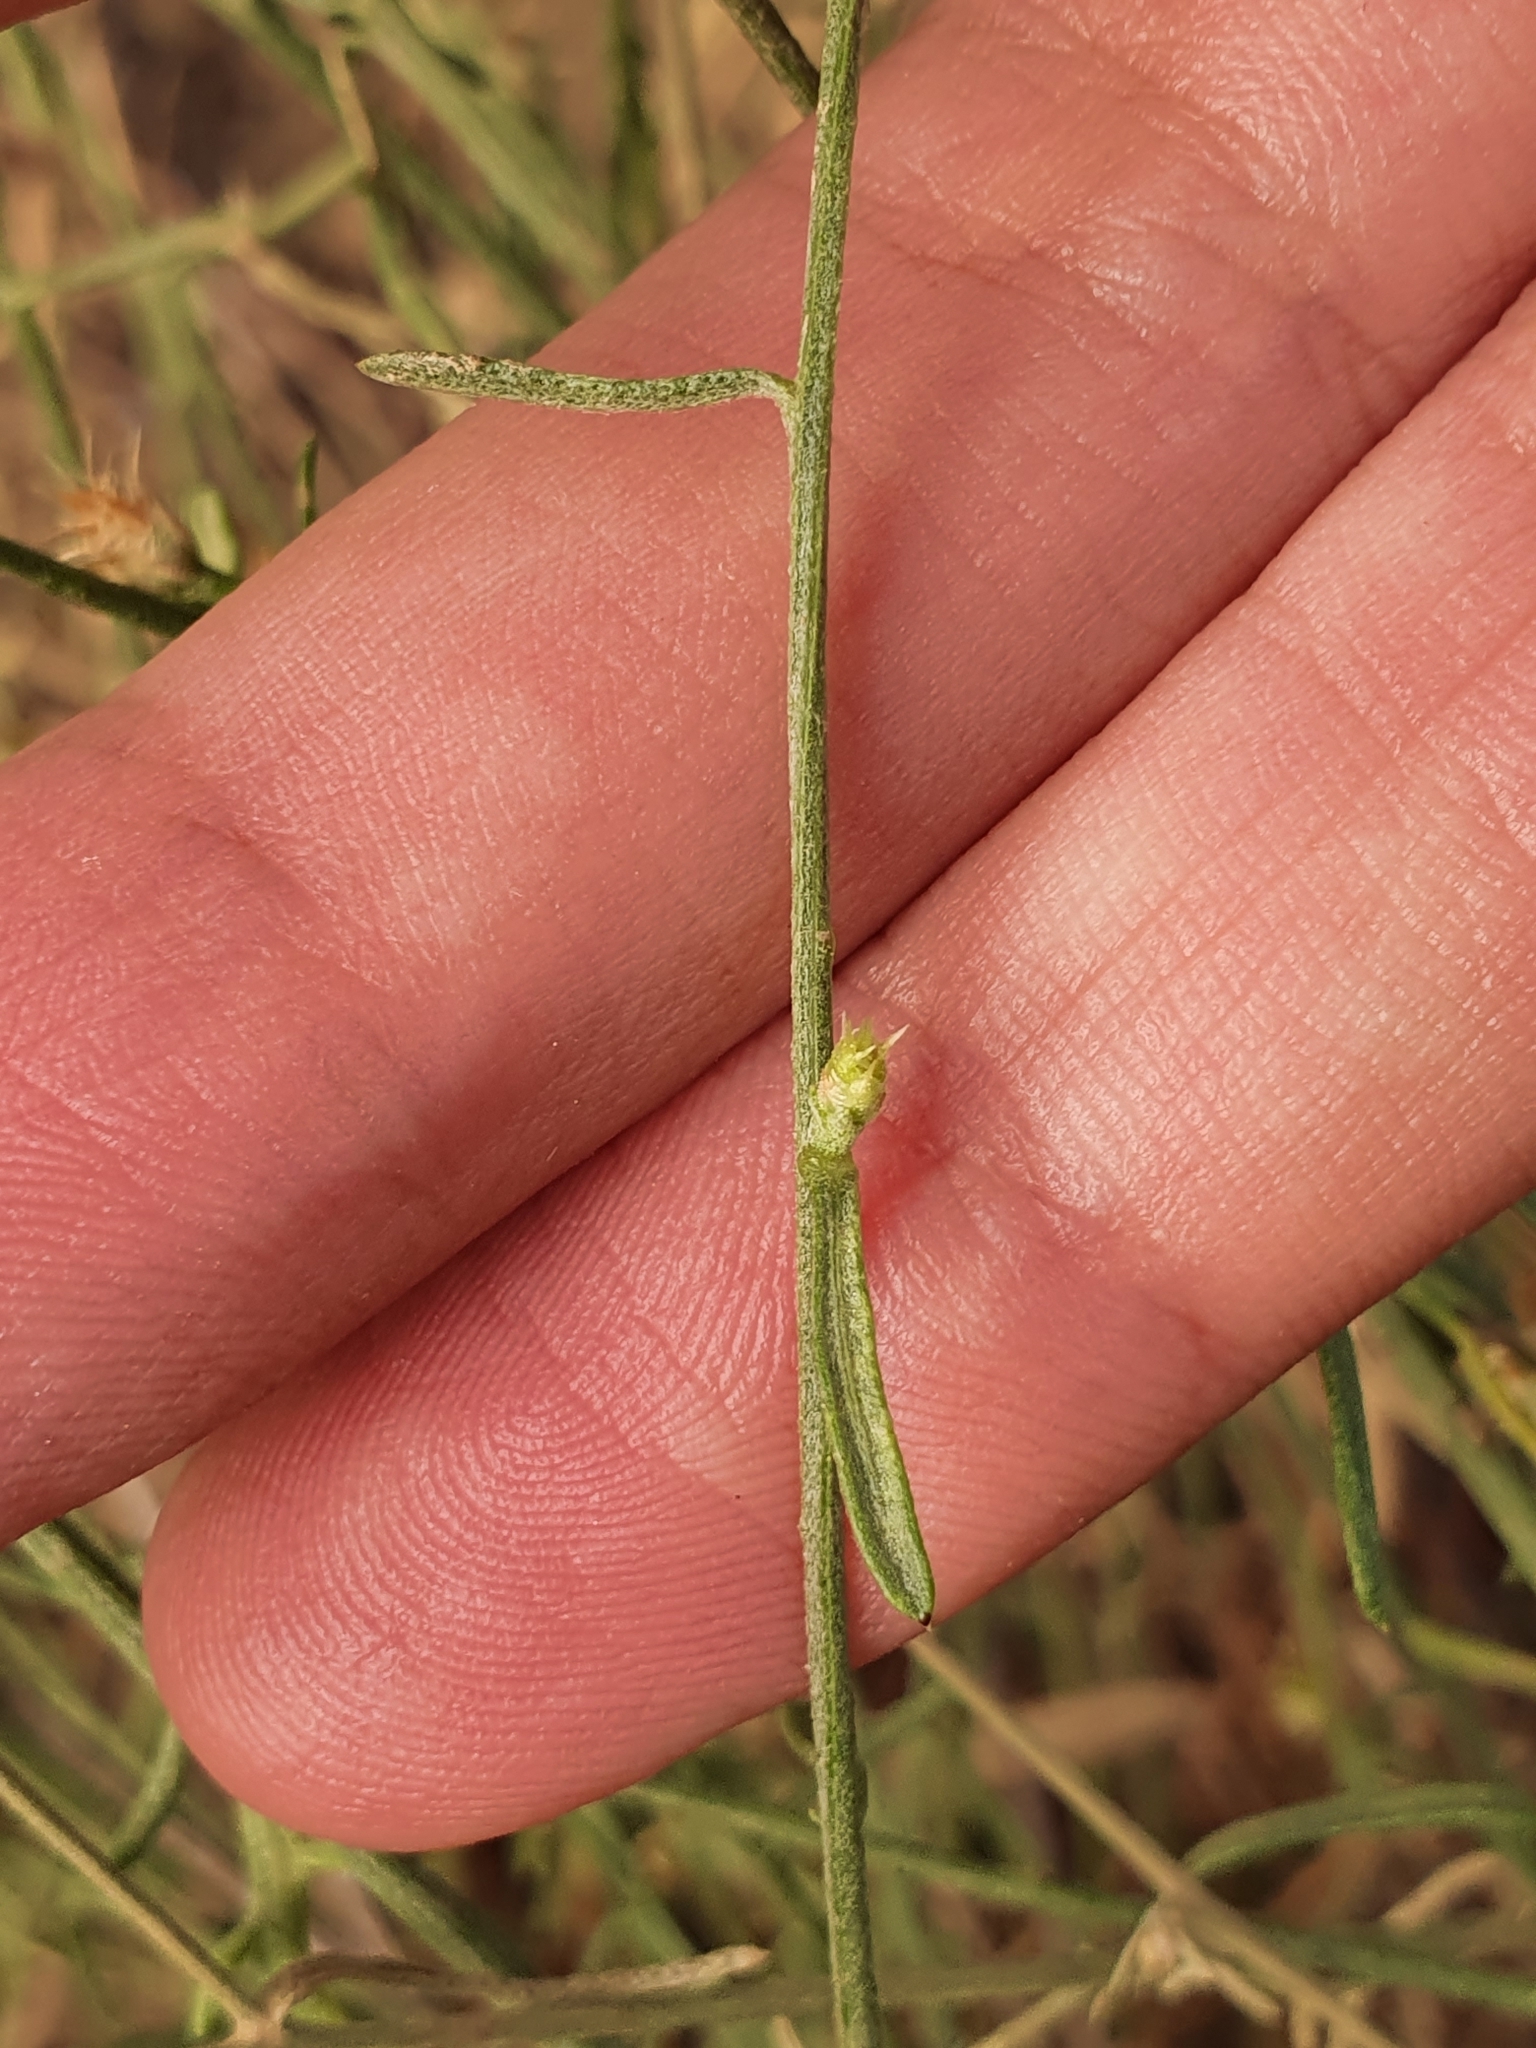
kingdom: Plantae
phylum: Tracheophyta
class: Magnoliopsida
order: Asterales
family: Asteraceae
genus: Centaurea
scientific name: Centaurea parviflora
